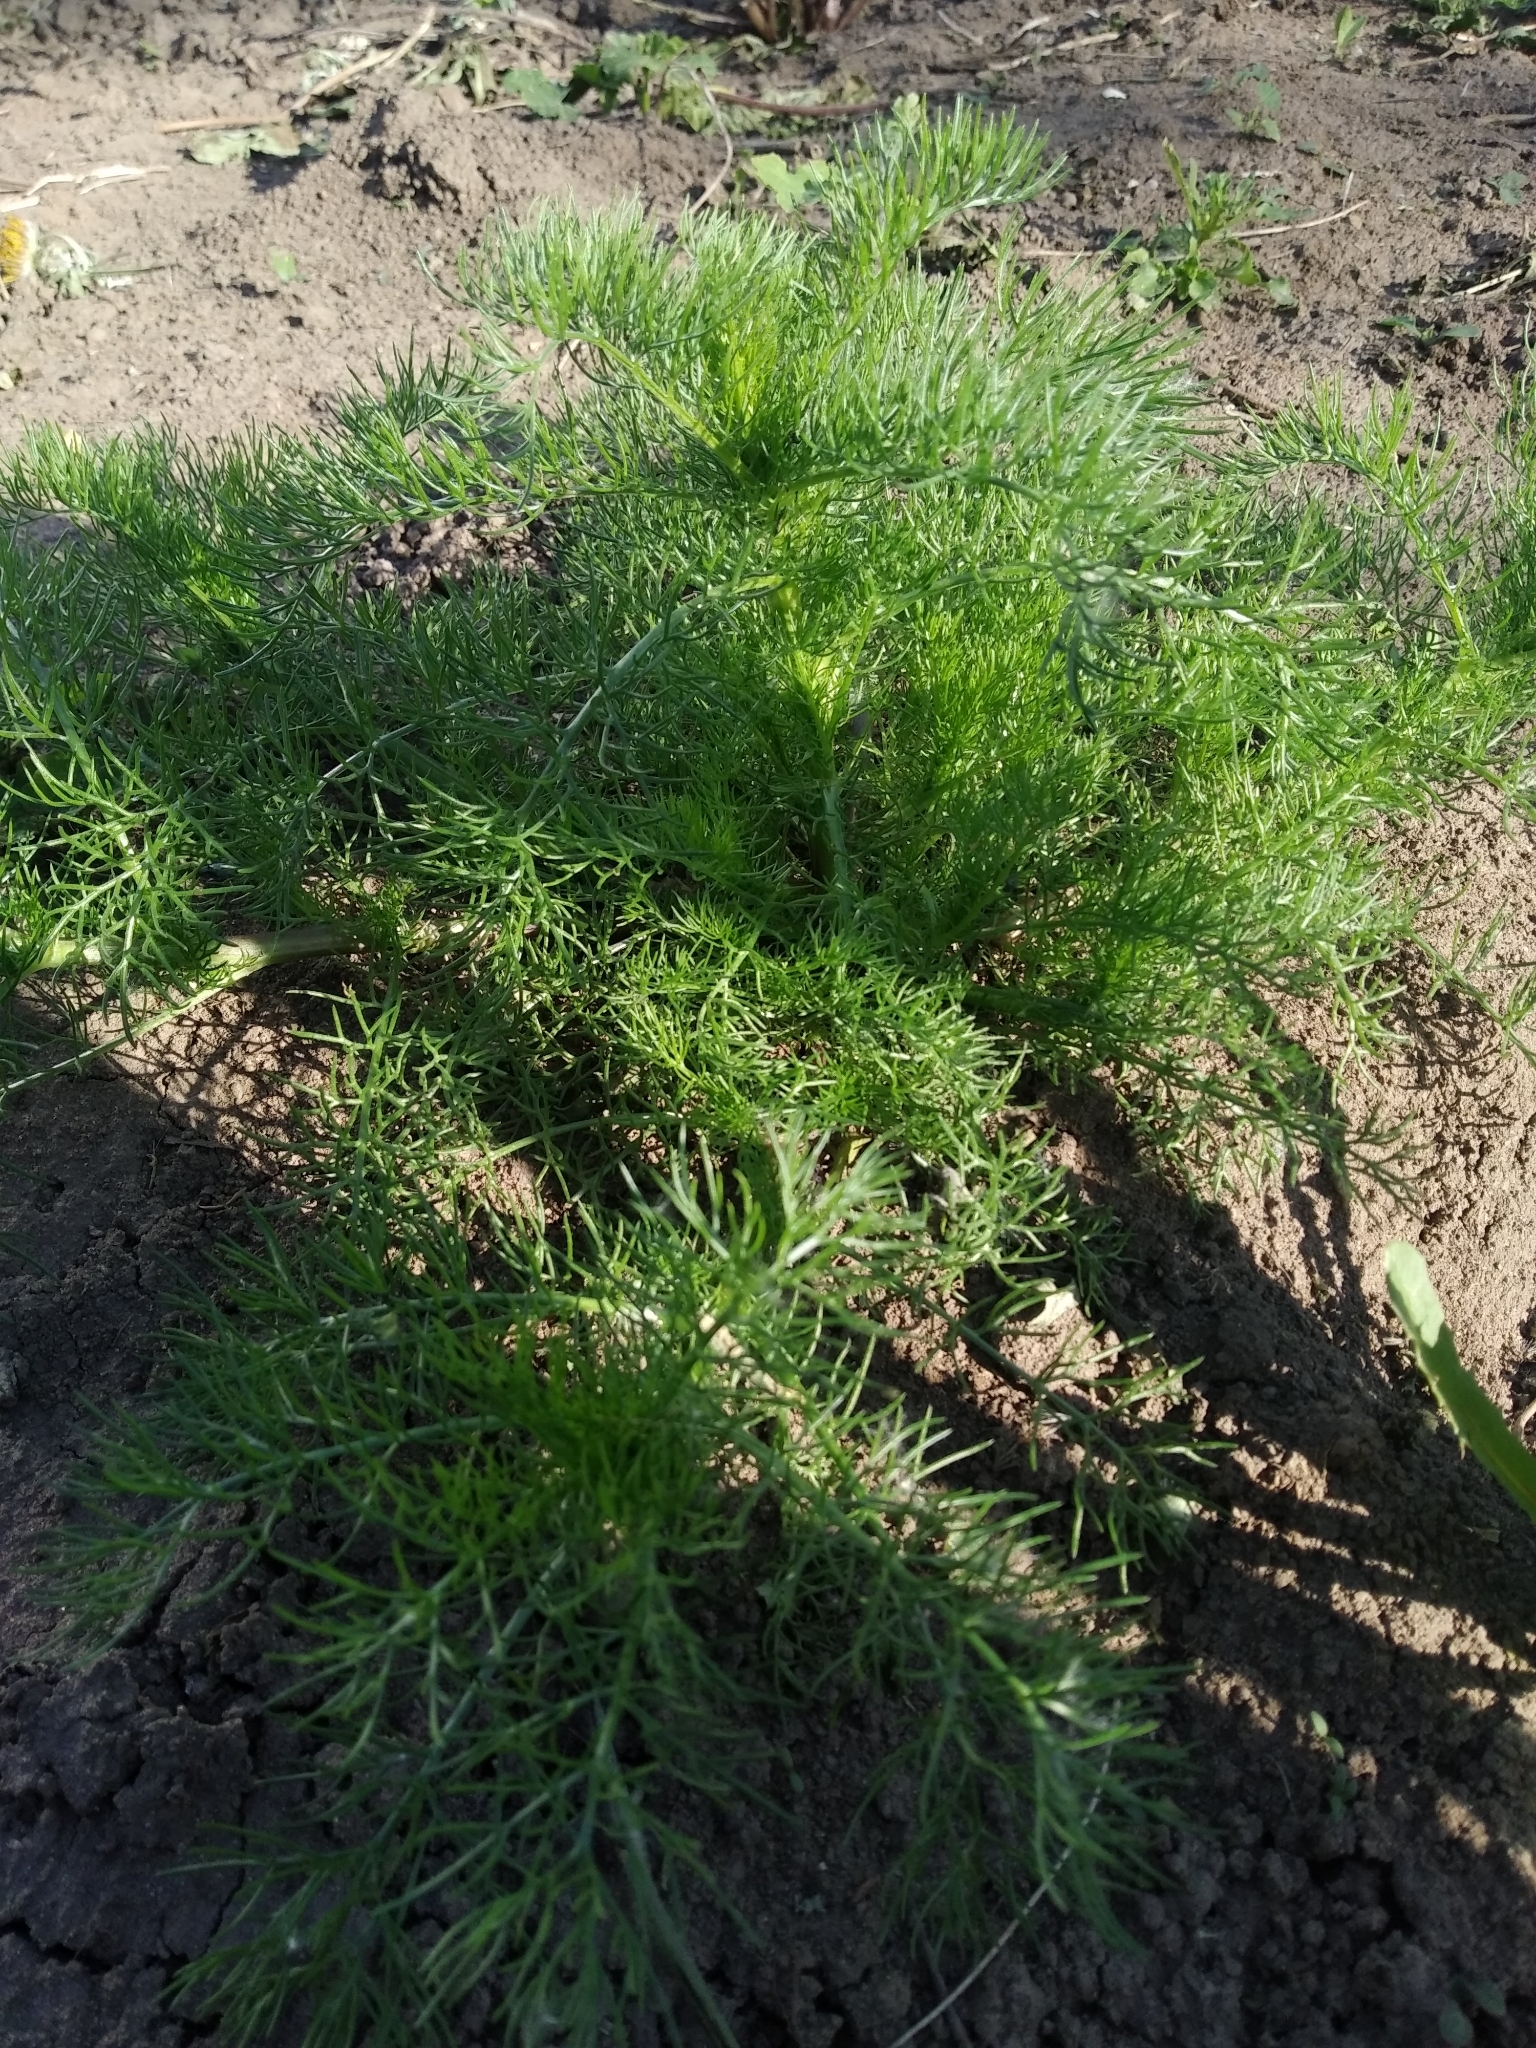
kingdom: Plantae
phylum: Tracheophyta
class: Magnoliopsida
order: Asterales
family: Asteraceae
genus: Tripleurospermum
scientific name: Tripleurospermum inodorum
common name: Scentless mayweed
